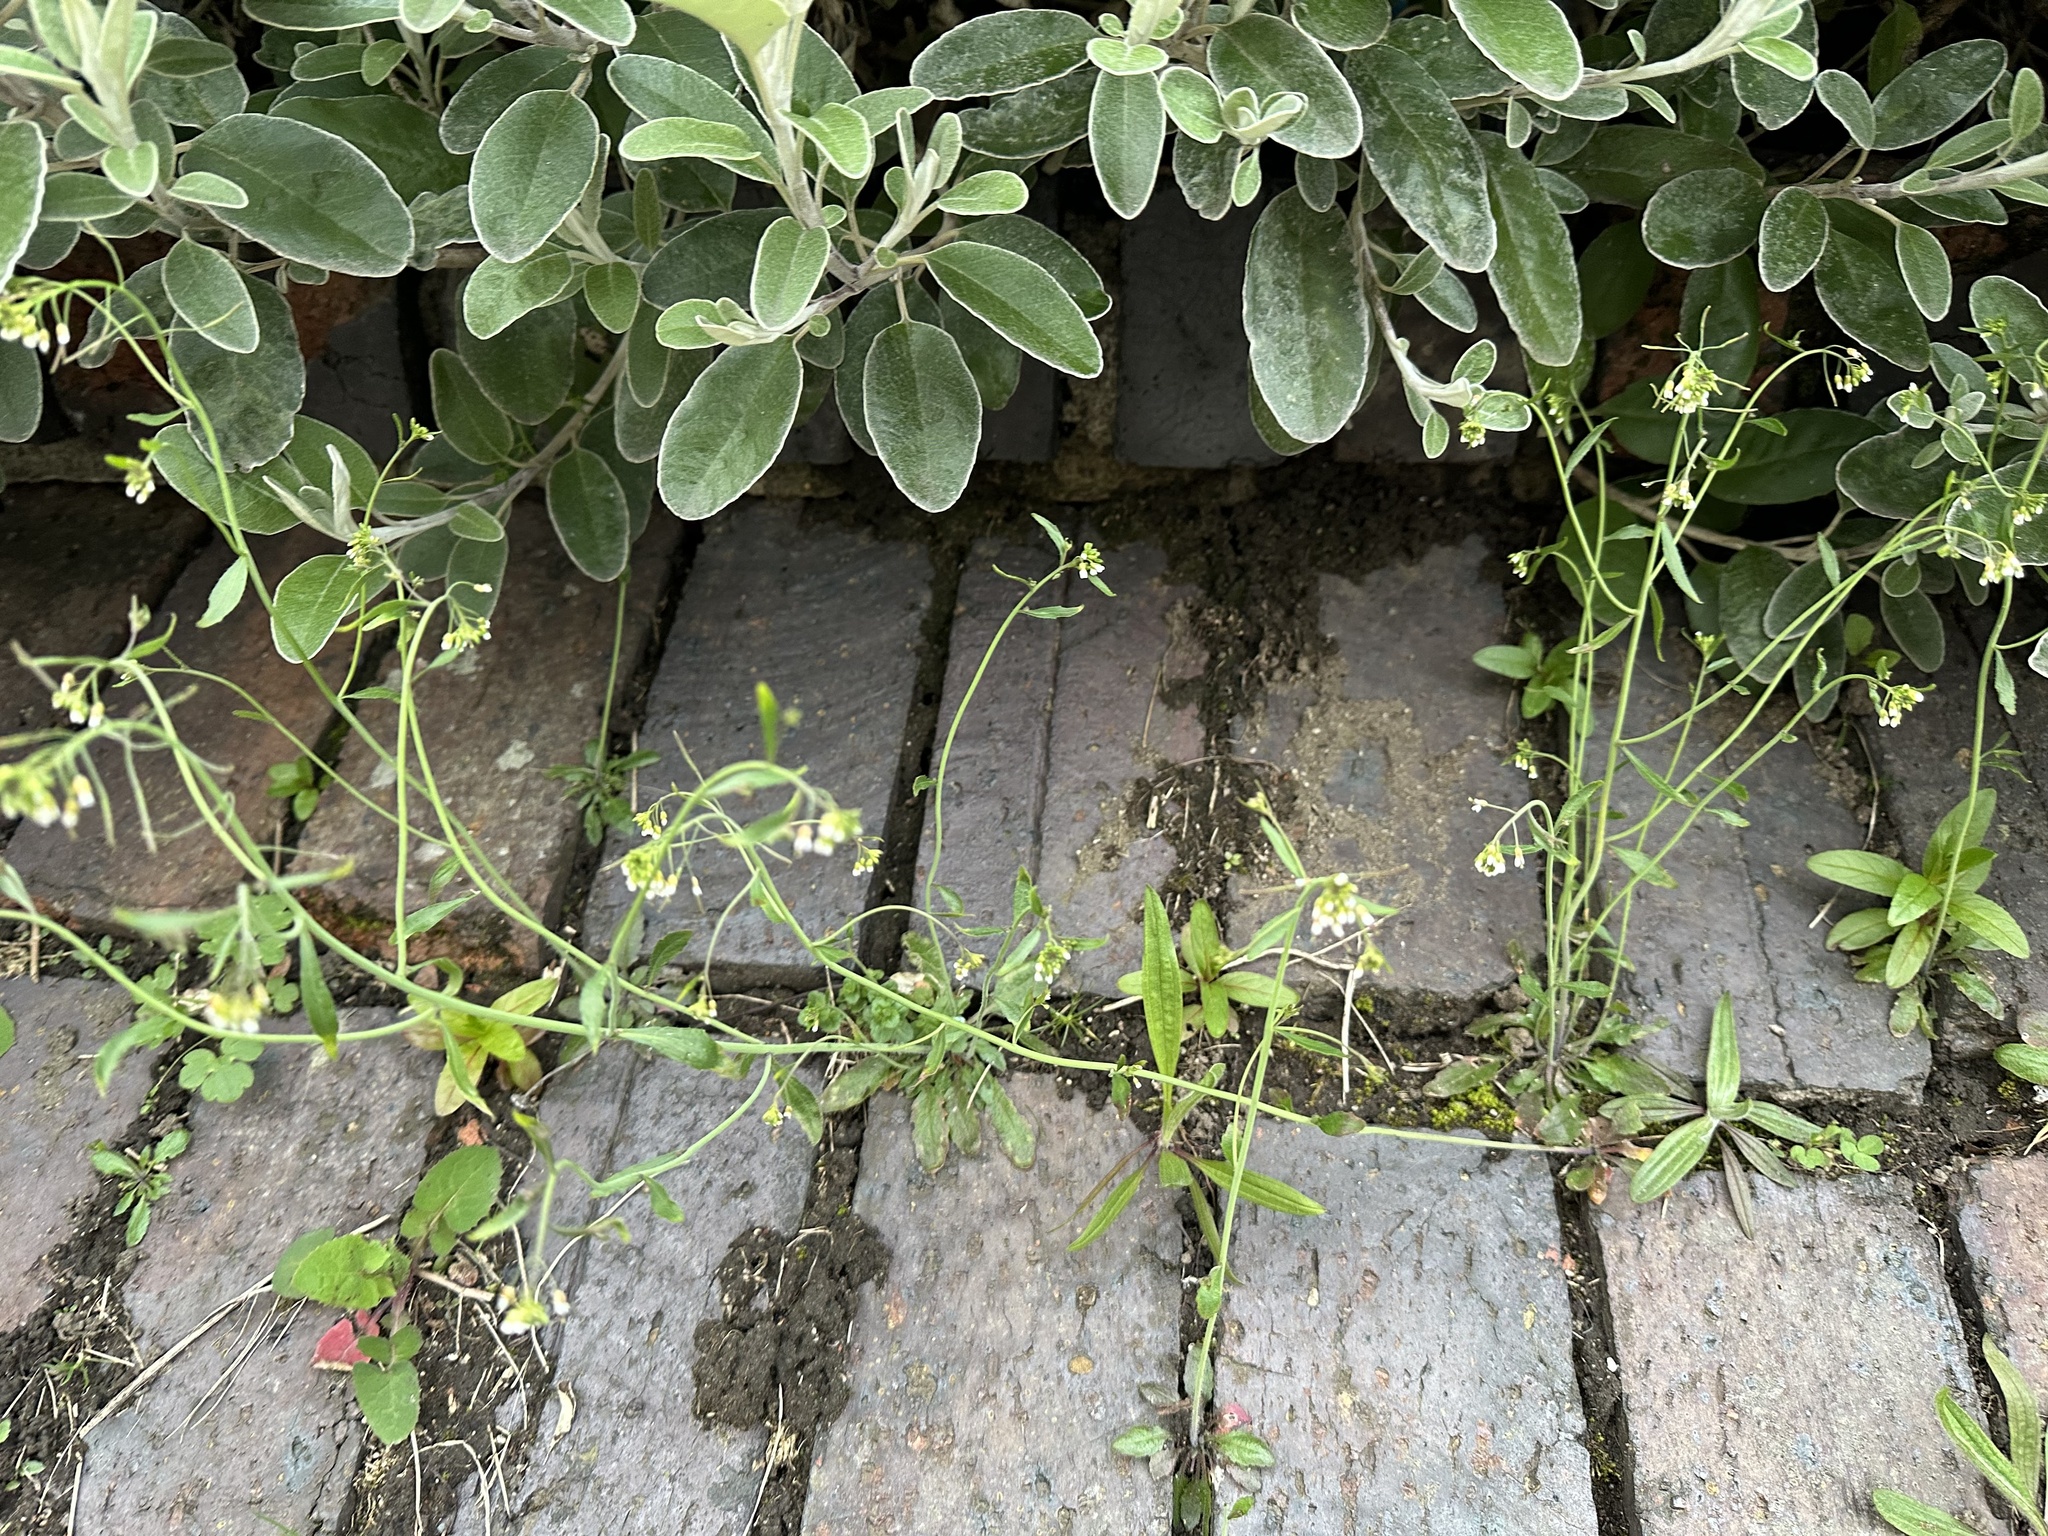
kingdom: Plantae
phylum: Tracheophyta
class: Magnoliopsida
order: Brassicales
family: Brassicaceae
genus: Arabidopsis
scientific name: Arabidopsis thaliana
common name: Thale cress
